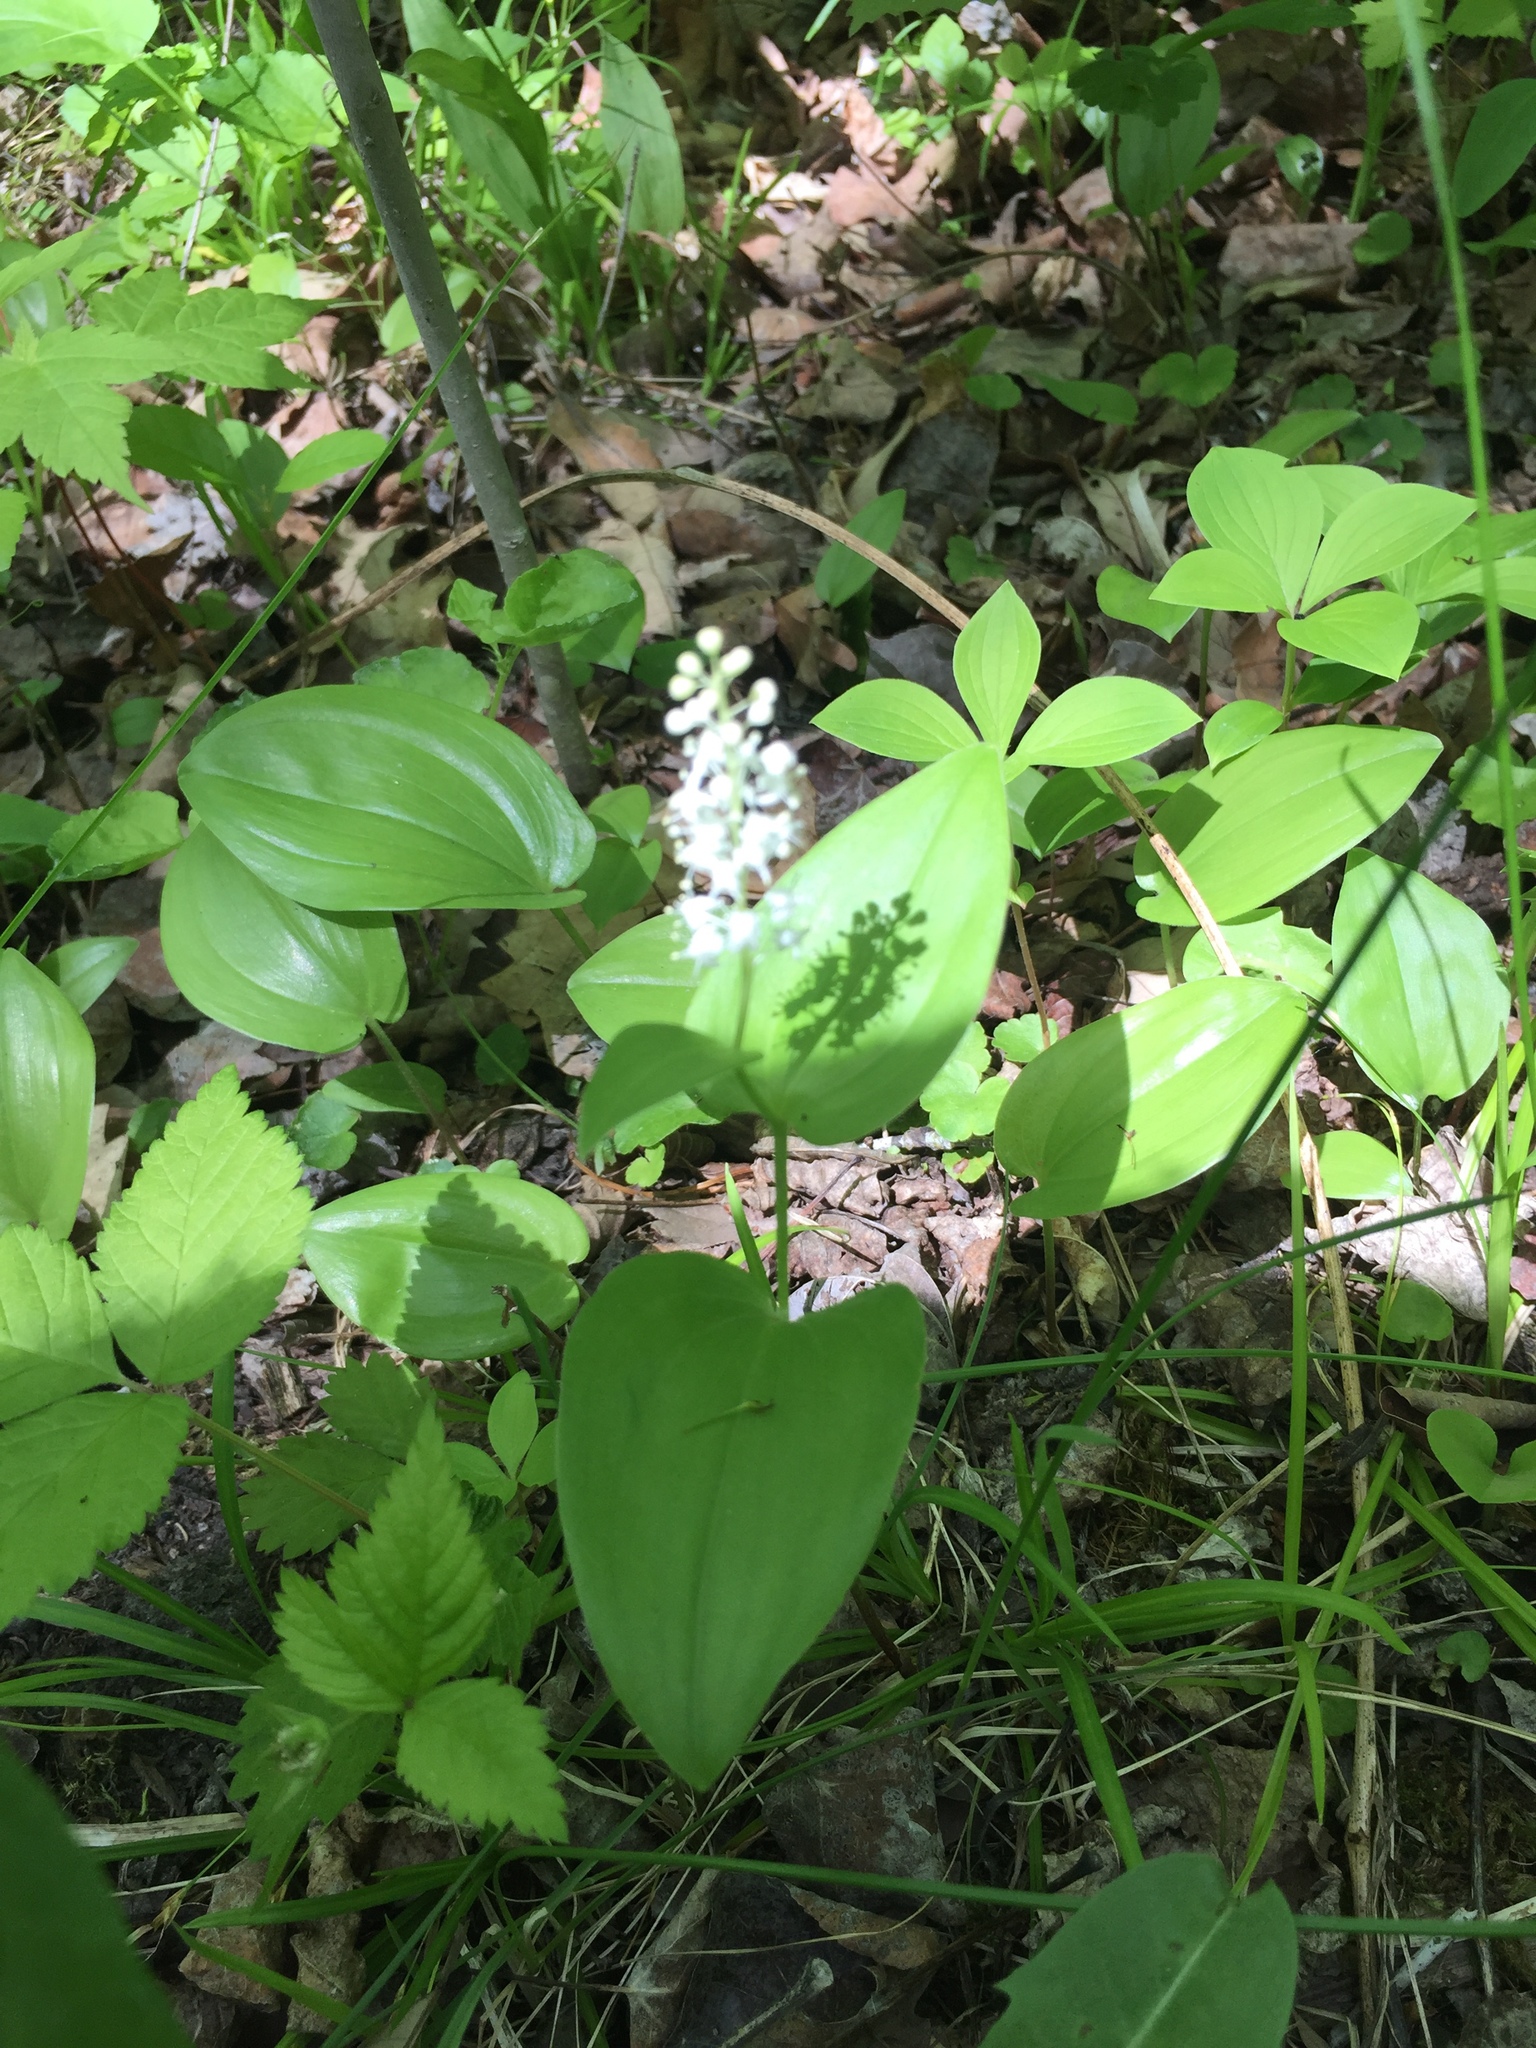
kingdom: Plantae
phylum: Tracheophyta
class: Liliopsida
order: Asparagales
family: Asparagaceae
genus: Maianthemum
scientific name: Maianthemum canadense
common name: False lily-of-the-valley
